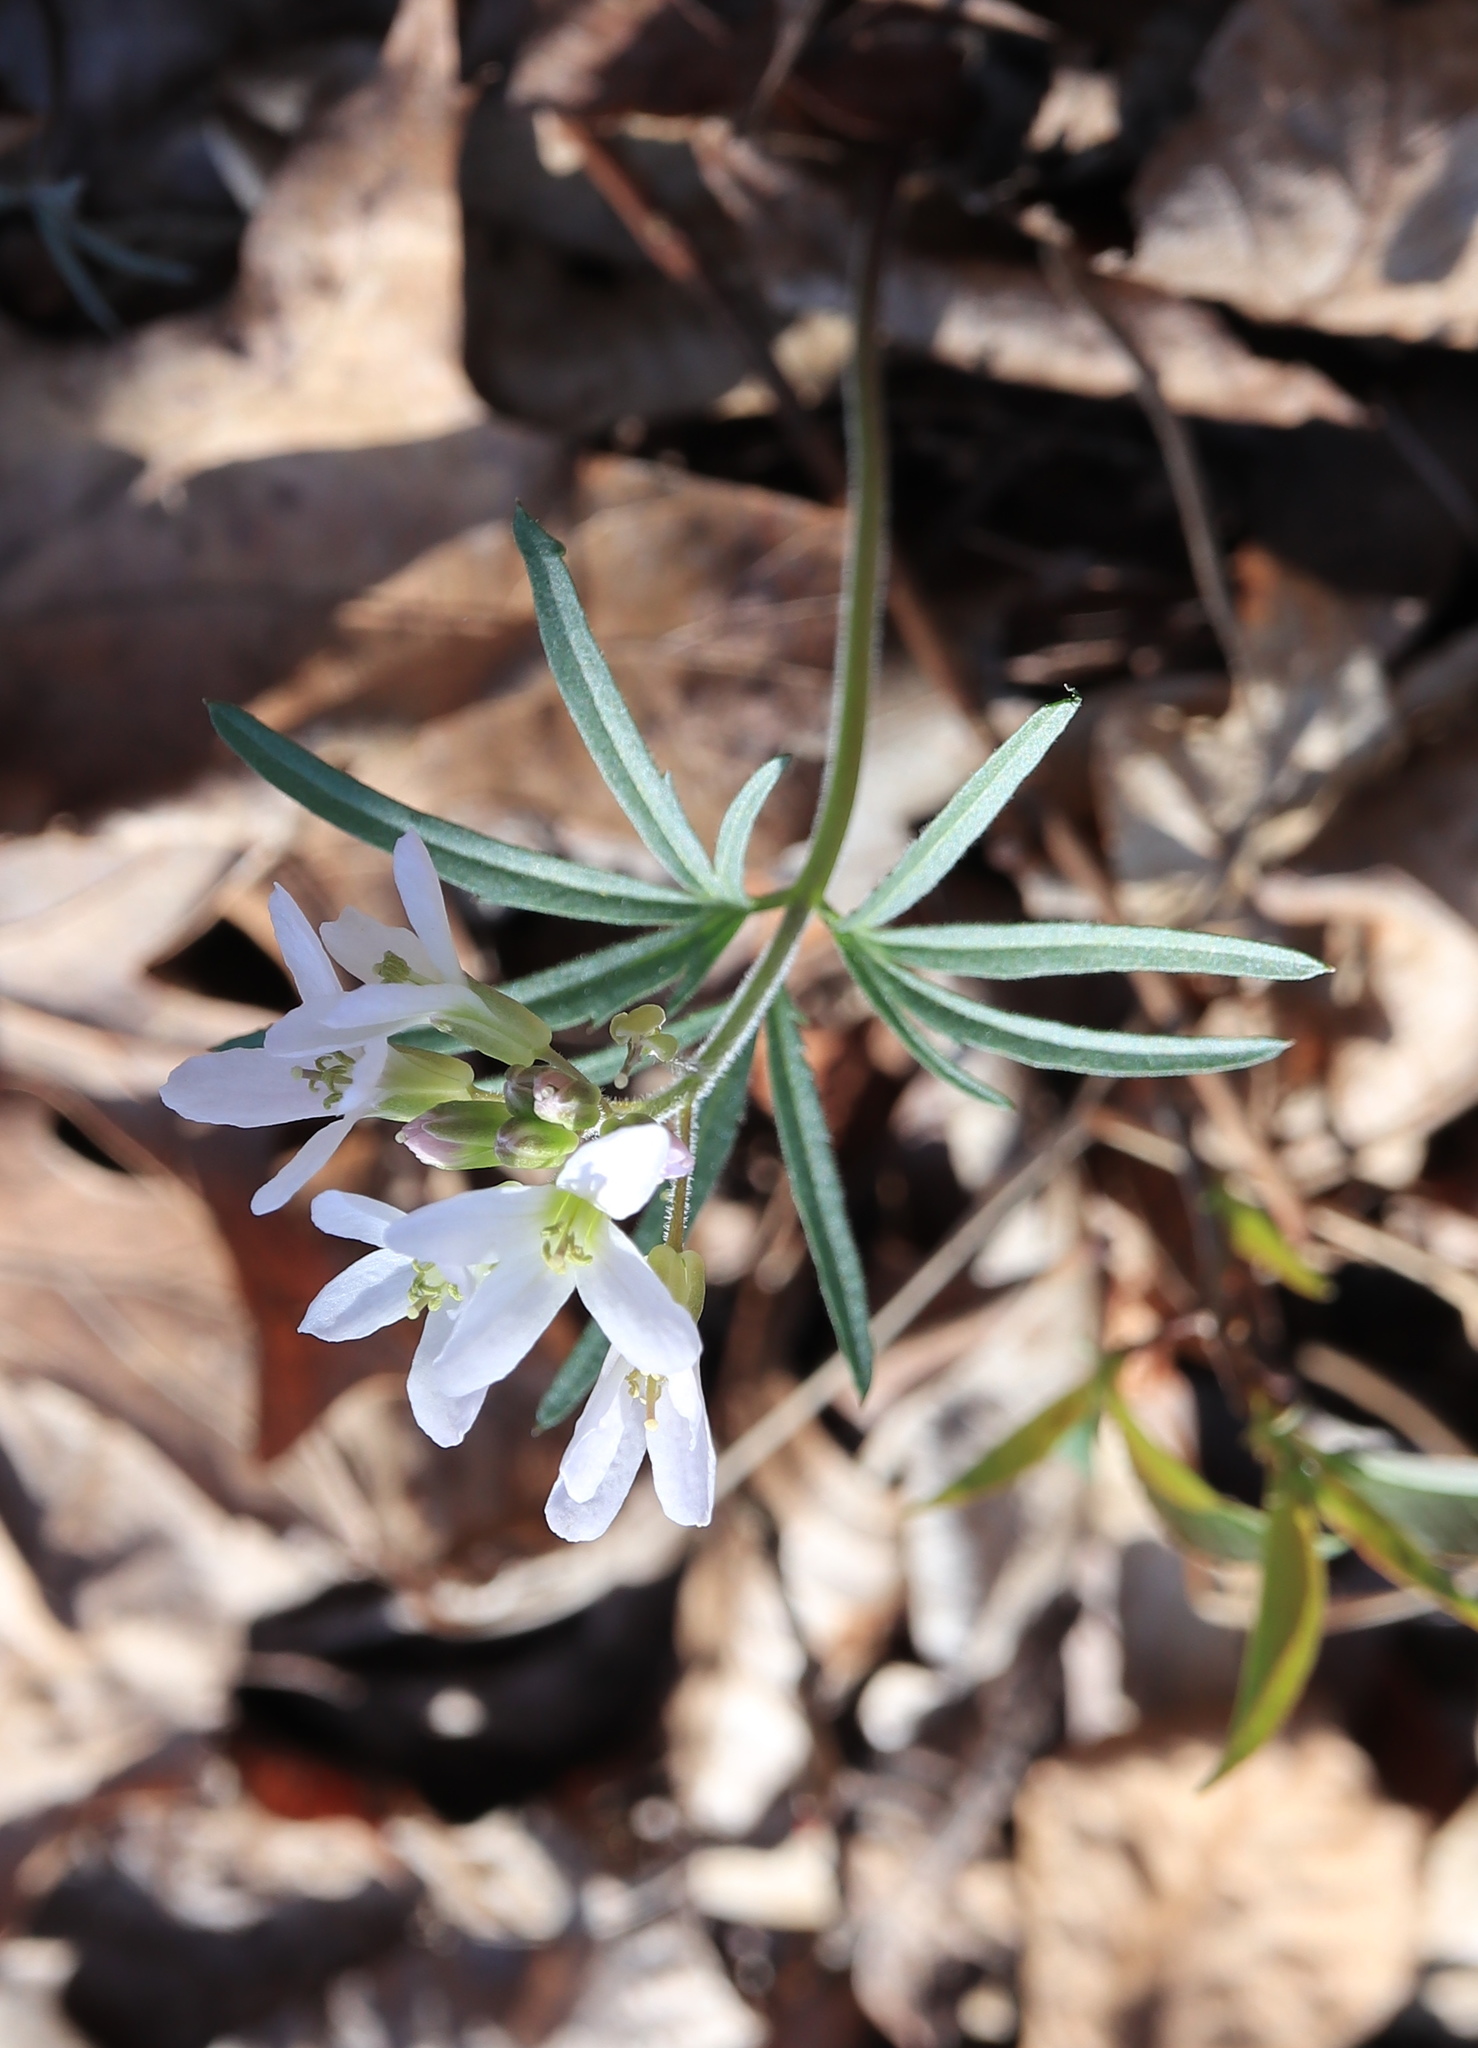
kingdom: Plantae
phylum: Tracheophyta
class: Magnoliopsida
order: Brassicales
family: Brassicaceae
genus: Cardamine
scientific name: Cardamine concatenata
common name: Cut-leaf toothcup
